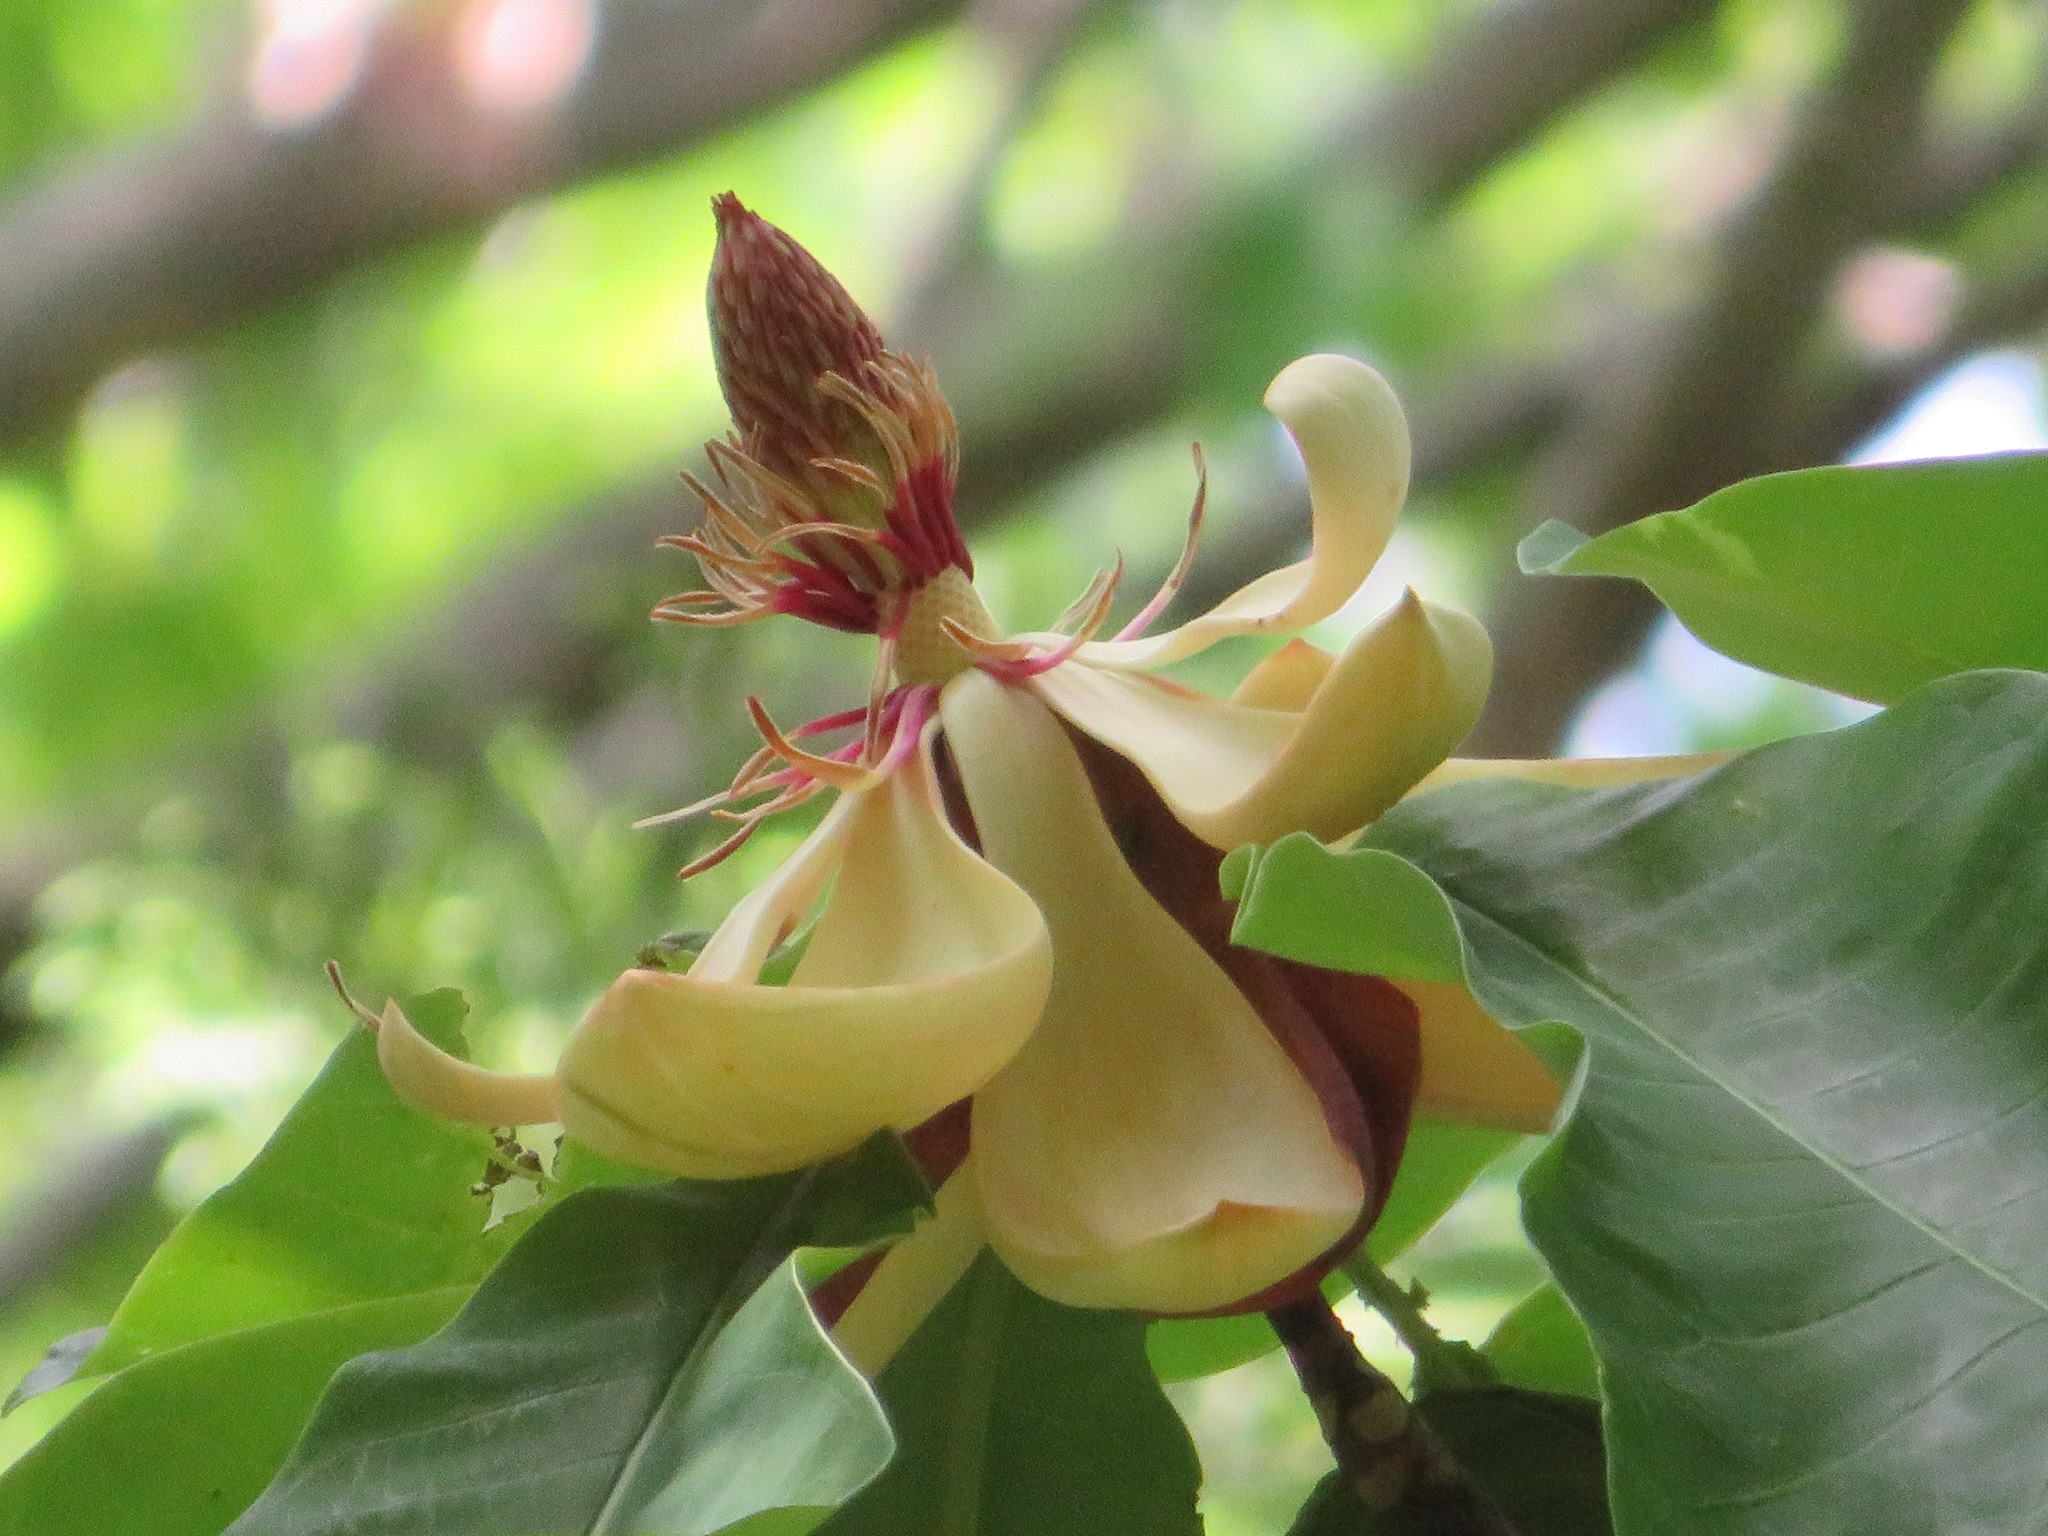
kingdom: Plantae
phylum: Tracheophyta
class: Magnoliopsida
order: Magnoliales
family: Magnoliaceae
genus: Magnolia
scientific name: Magnolia obovata
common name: Japanese whitebark magnolia
